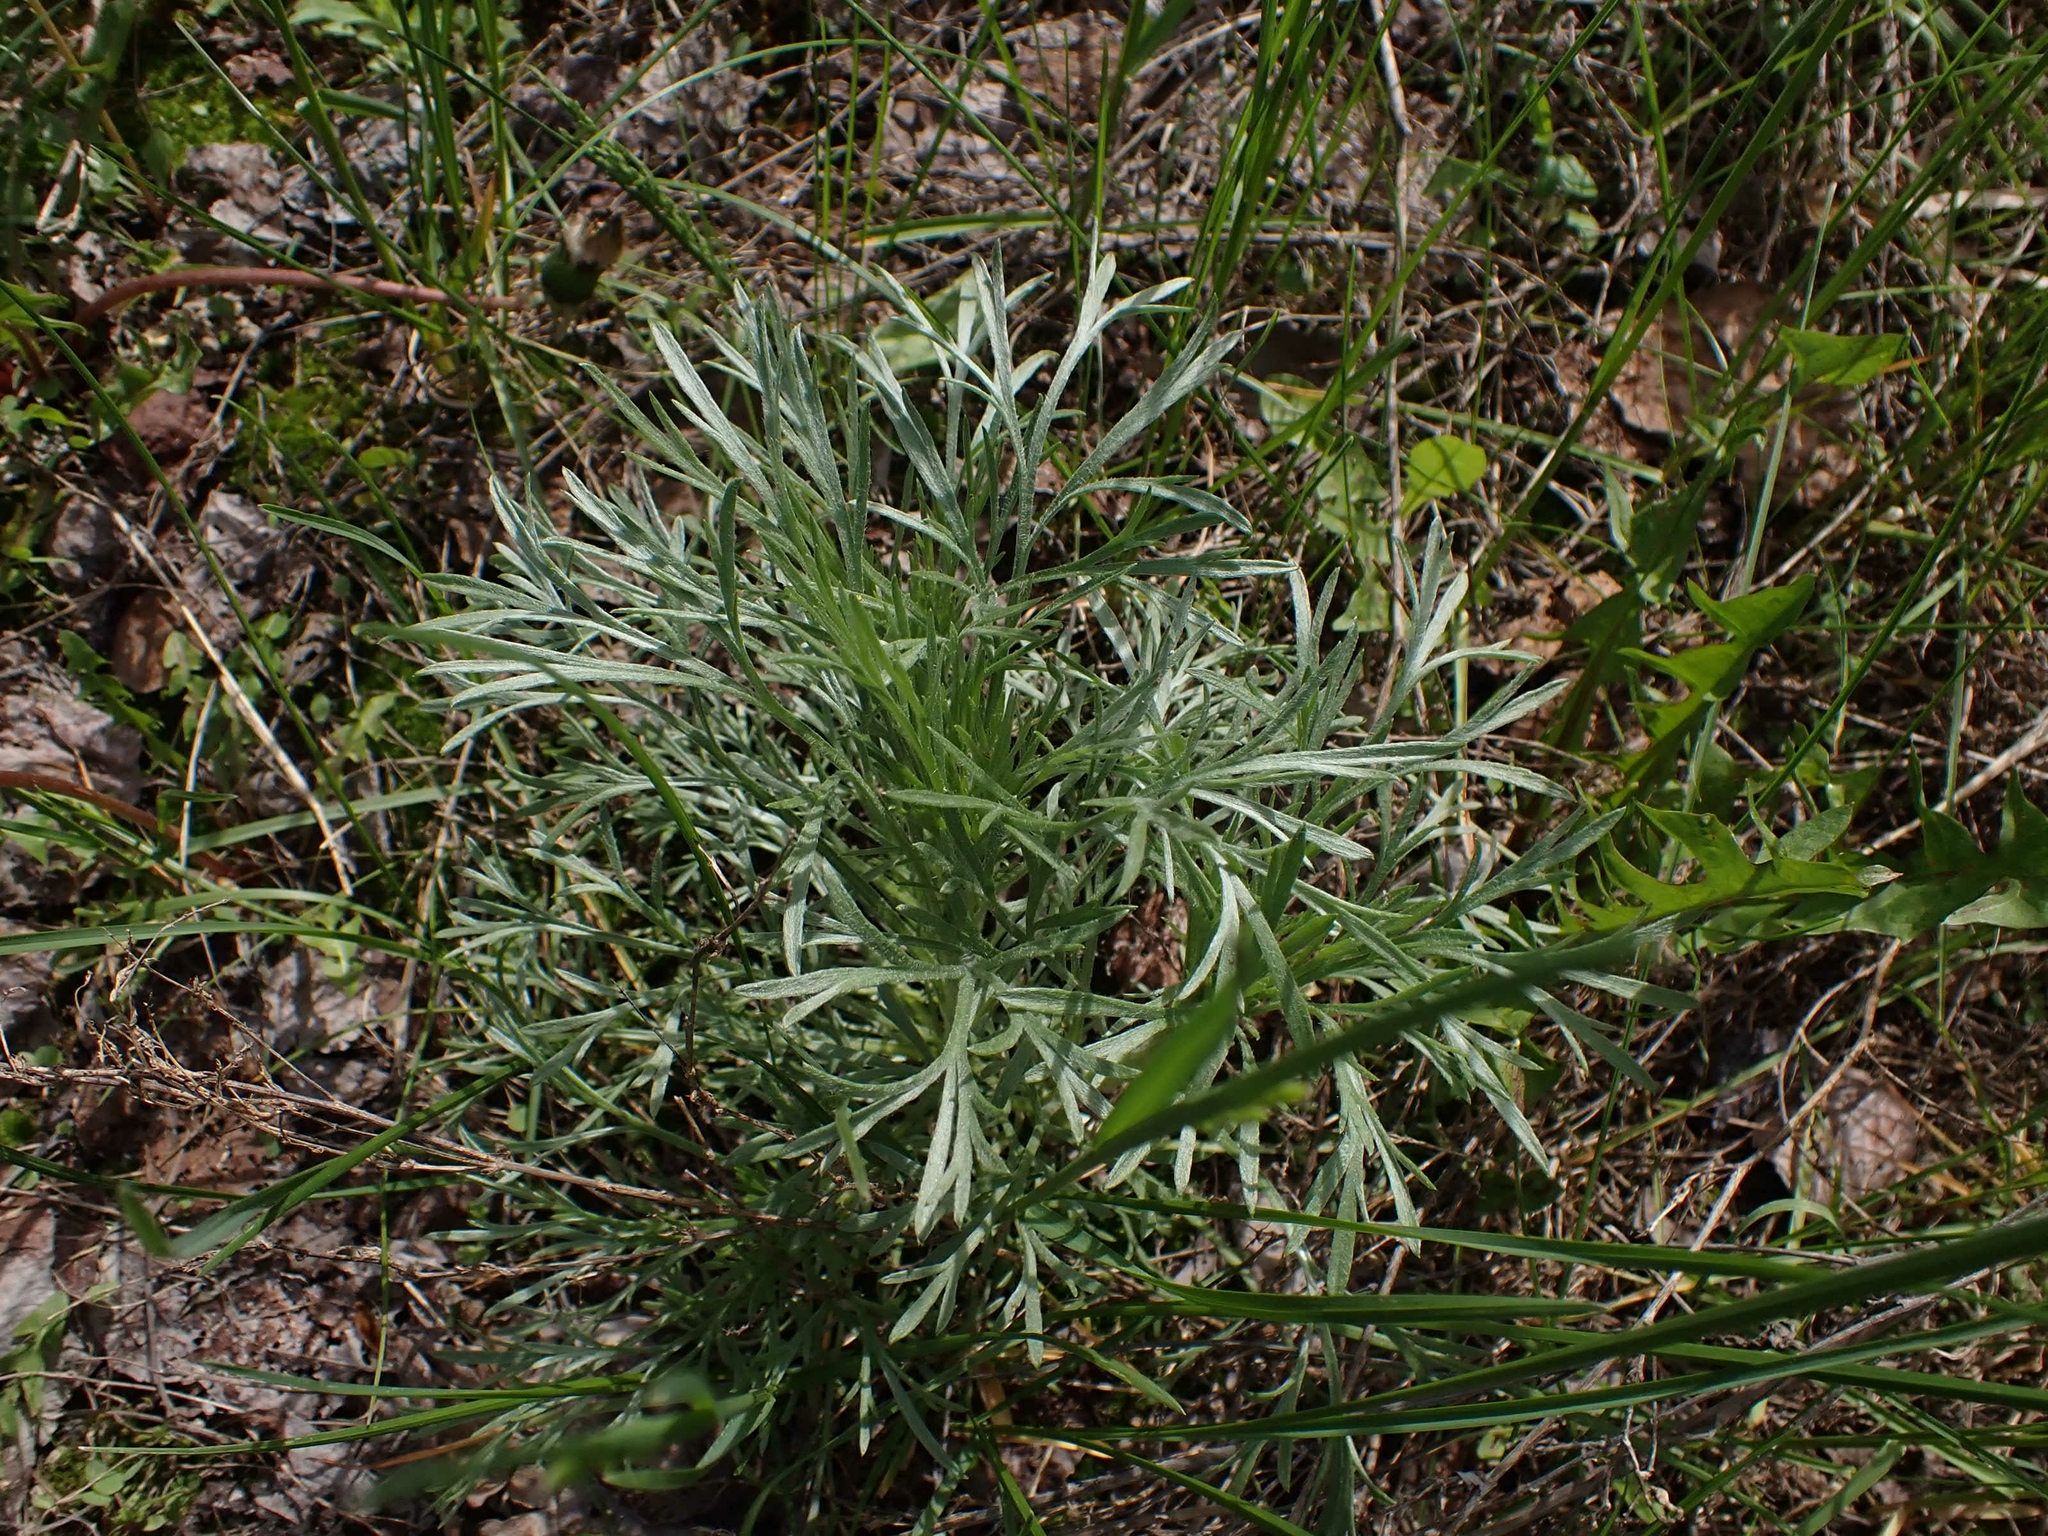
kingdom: Plantae
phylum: Tracheophyta
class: Magnoliopsida
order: Asterales
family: Asteraceae
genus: Artemisia
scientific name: Artemisia campestris
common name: Field wormwood
